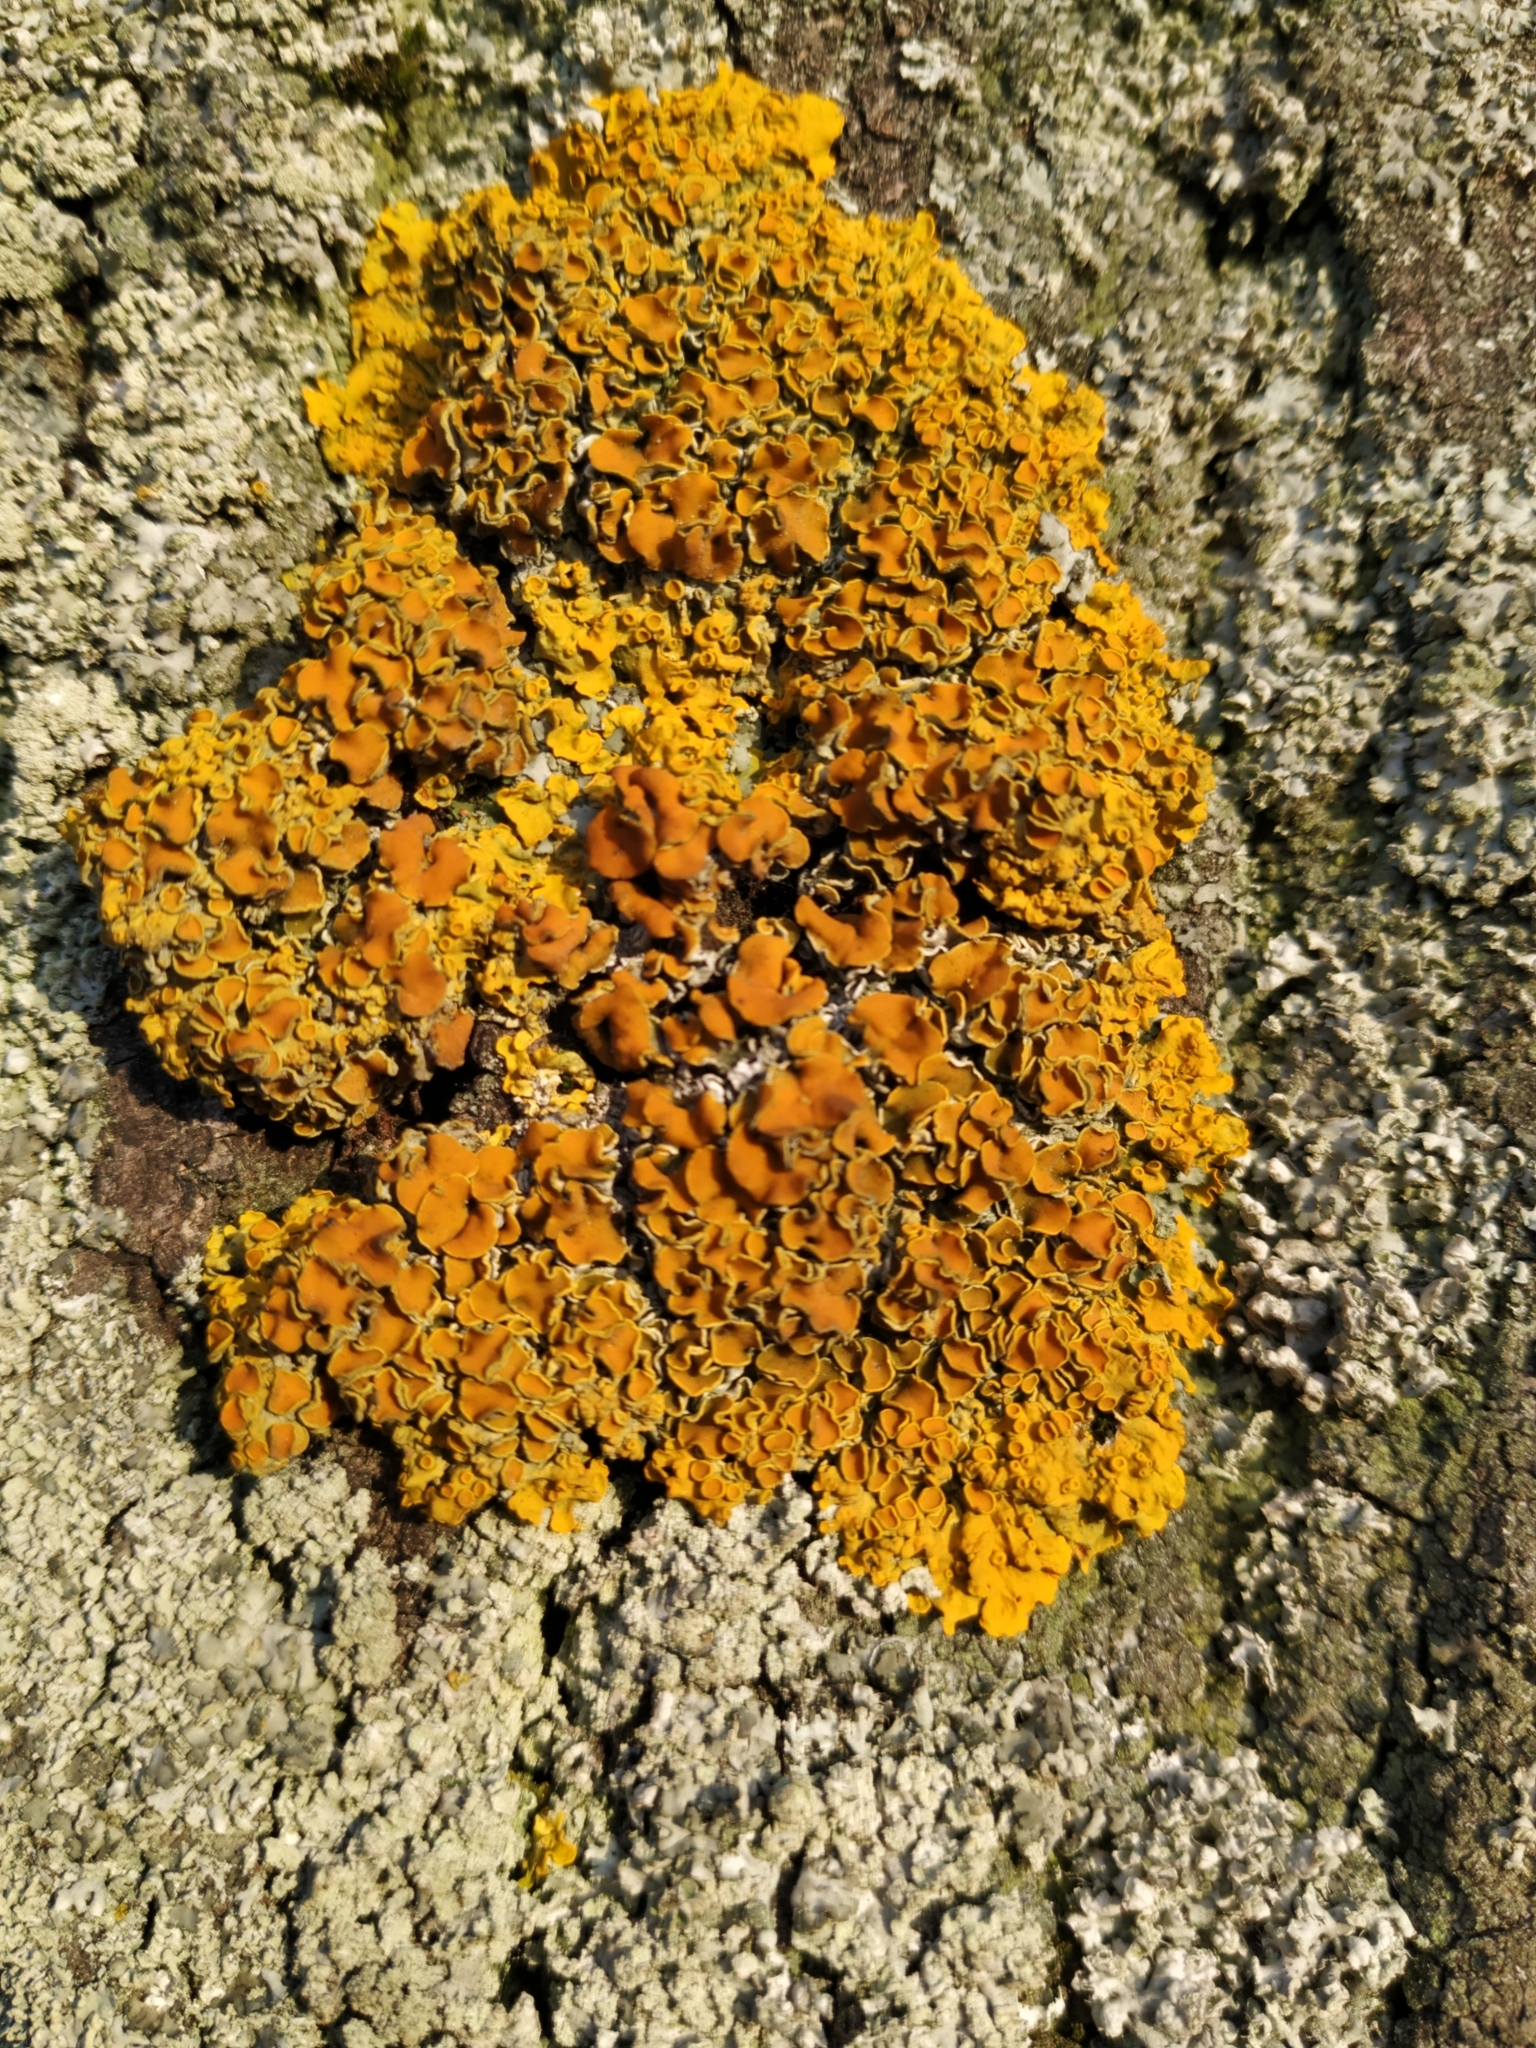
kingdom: Fungi
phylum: Ascomycota
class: Lecanoromycetes
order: Teloschistales
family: Teloschistaceae
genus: Xanthoria
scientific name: Xanthoria parietina
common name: Common orange lichen
